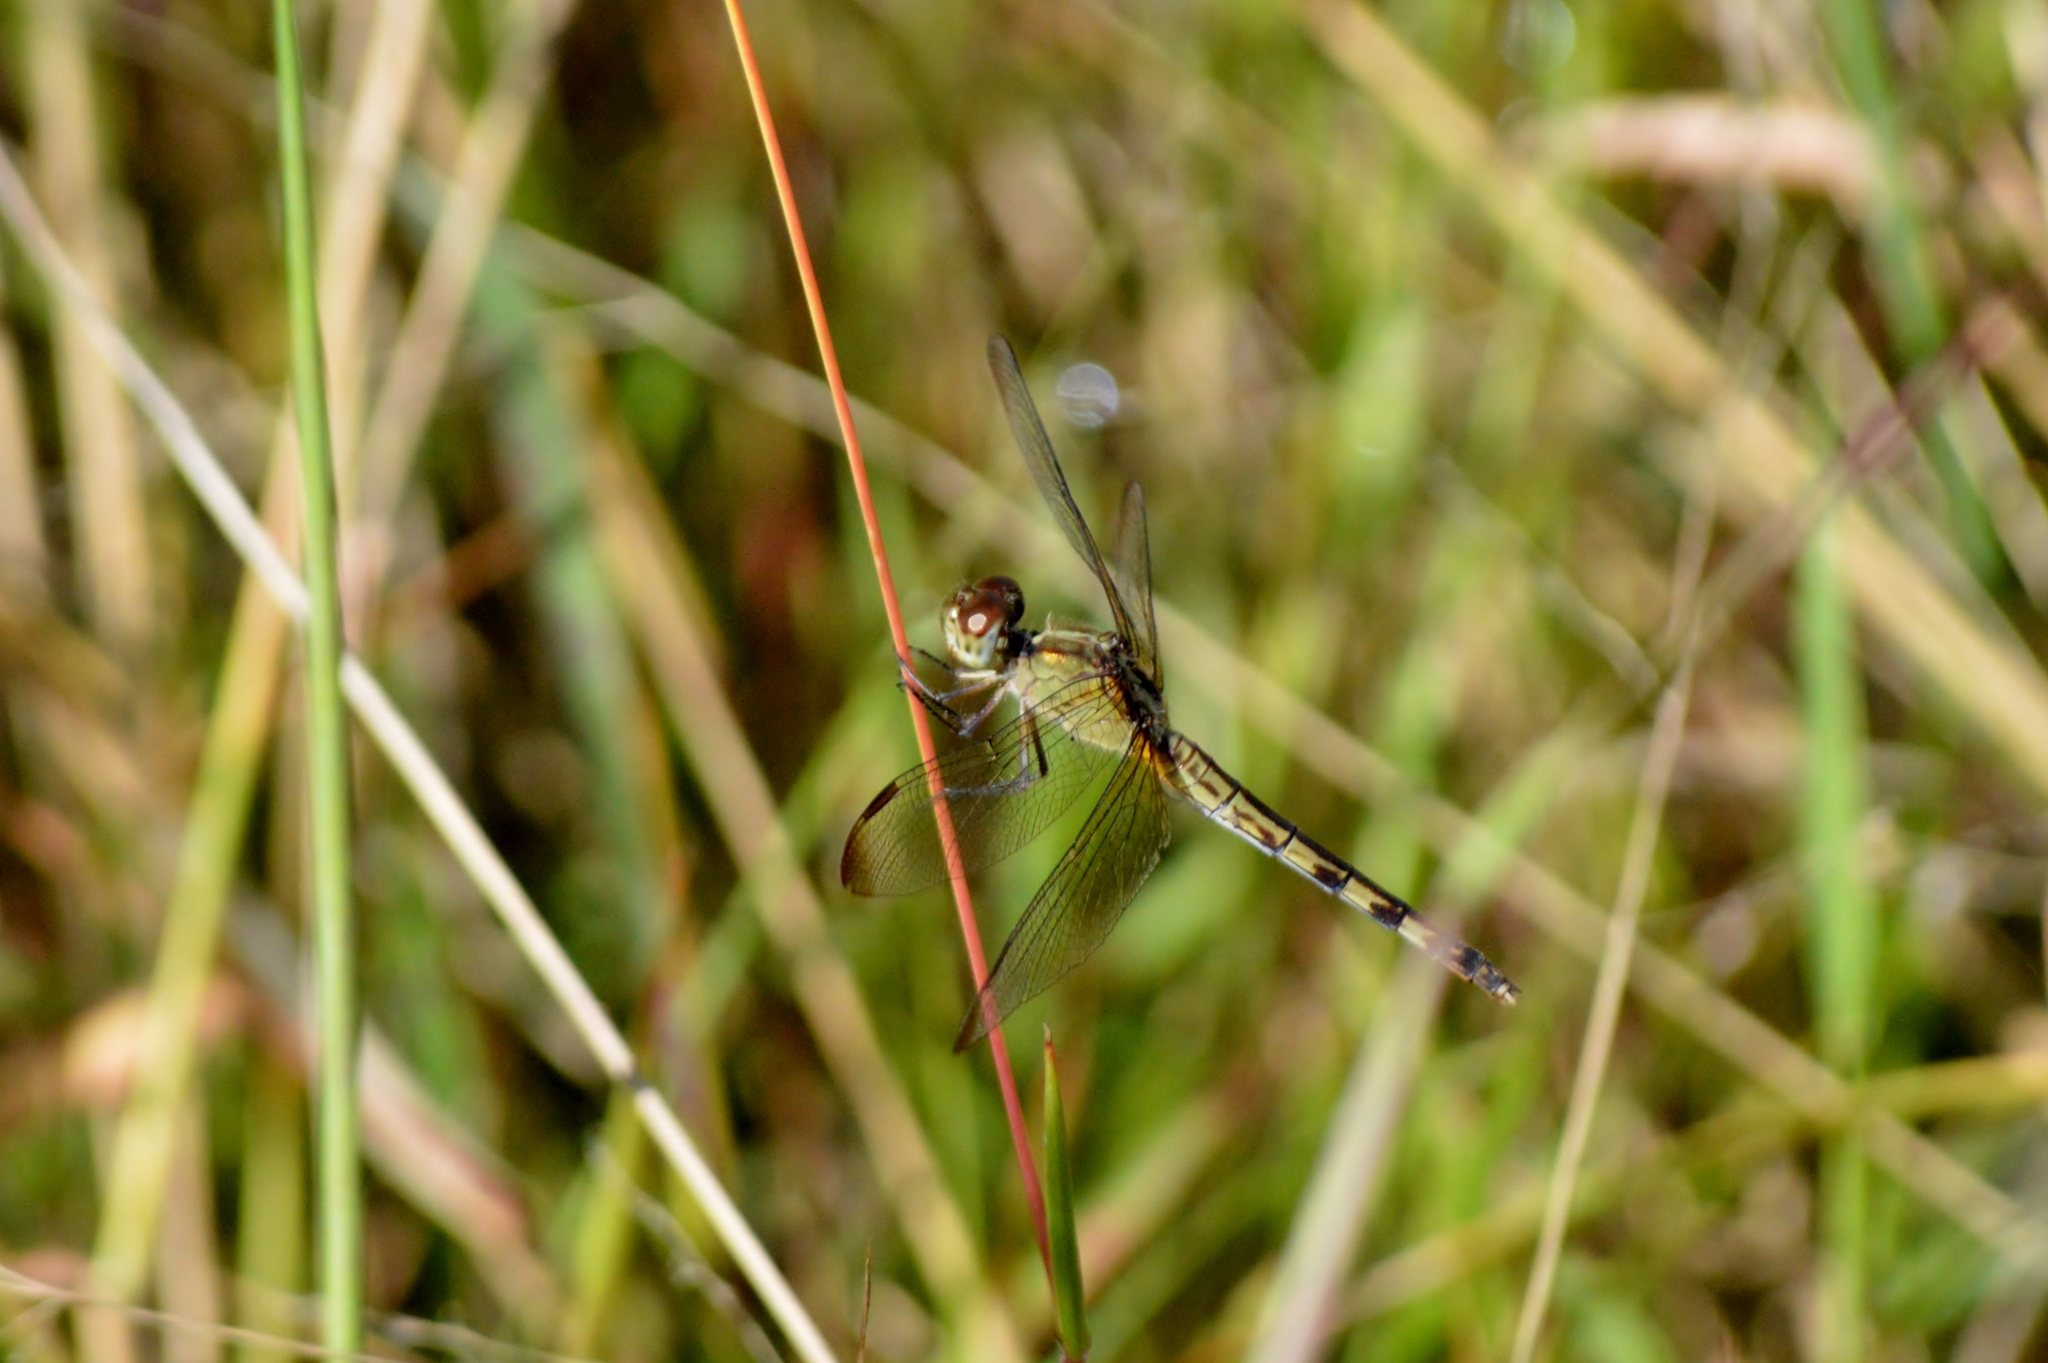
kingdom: Animalia
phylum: Arthropoda
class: Insecta
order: Odonata
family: Libellulidae
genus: Erythrodiplax
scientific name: Erythrodiplax umbrata
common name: Band-winged dragonlet
